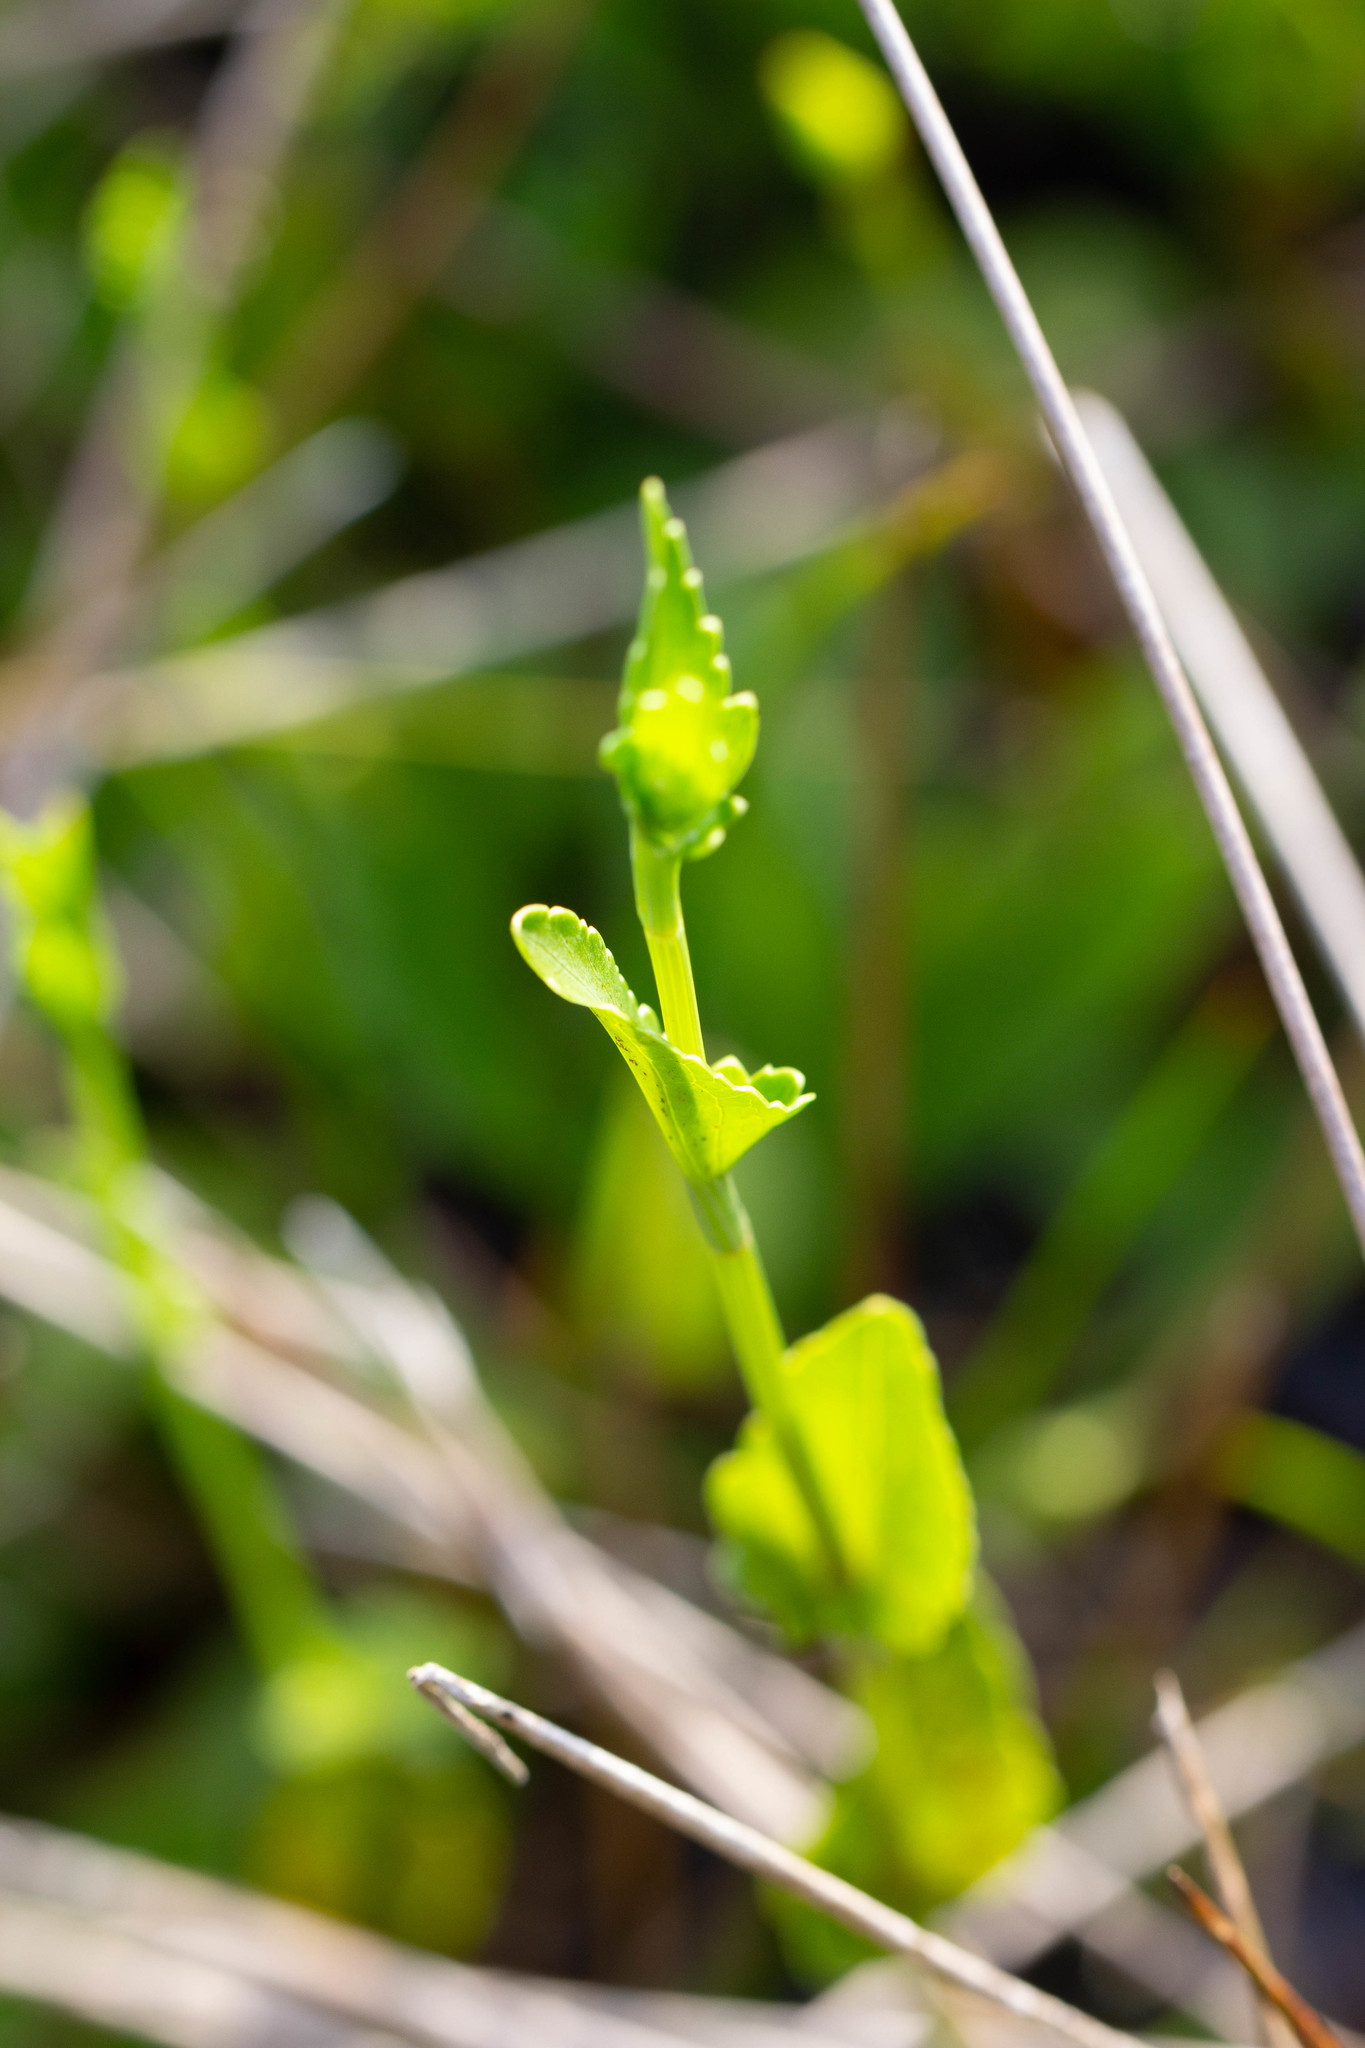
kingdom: Plantae
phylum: Tracheophyta
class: Magnoliopsida
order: Apiales
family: Apiaceae
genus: Eryngium
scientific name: Eryngium integrifolium
